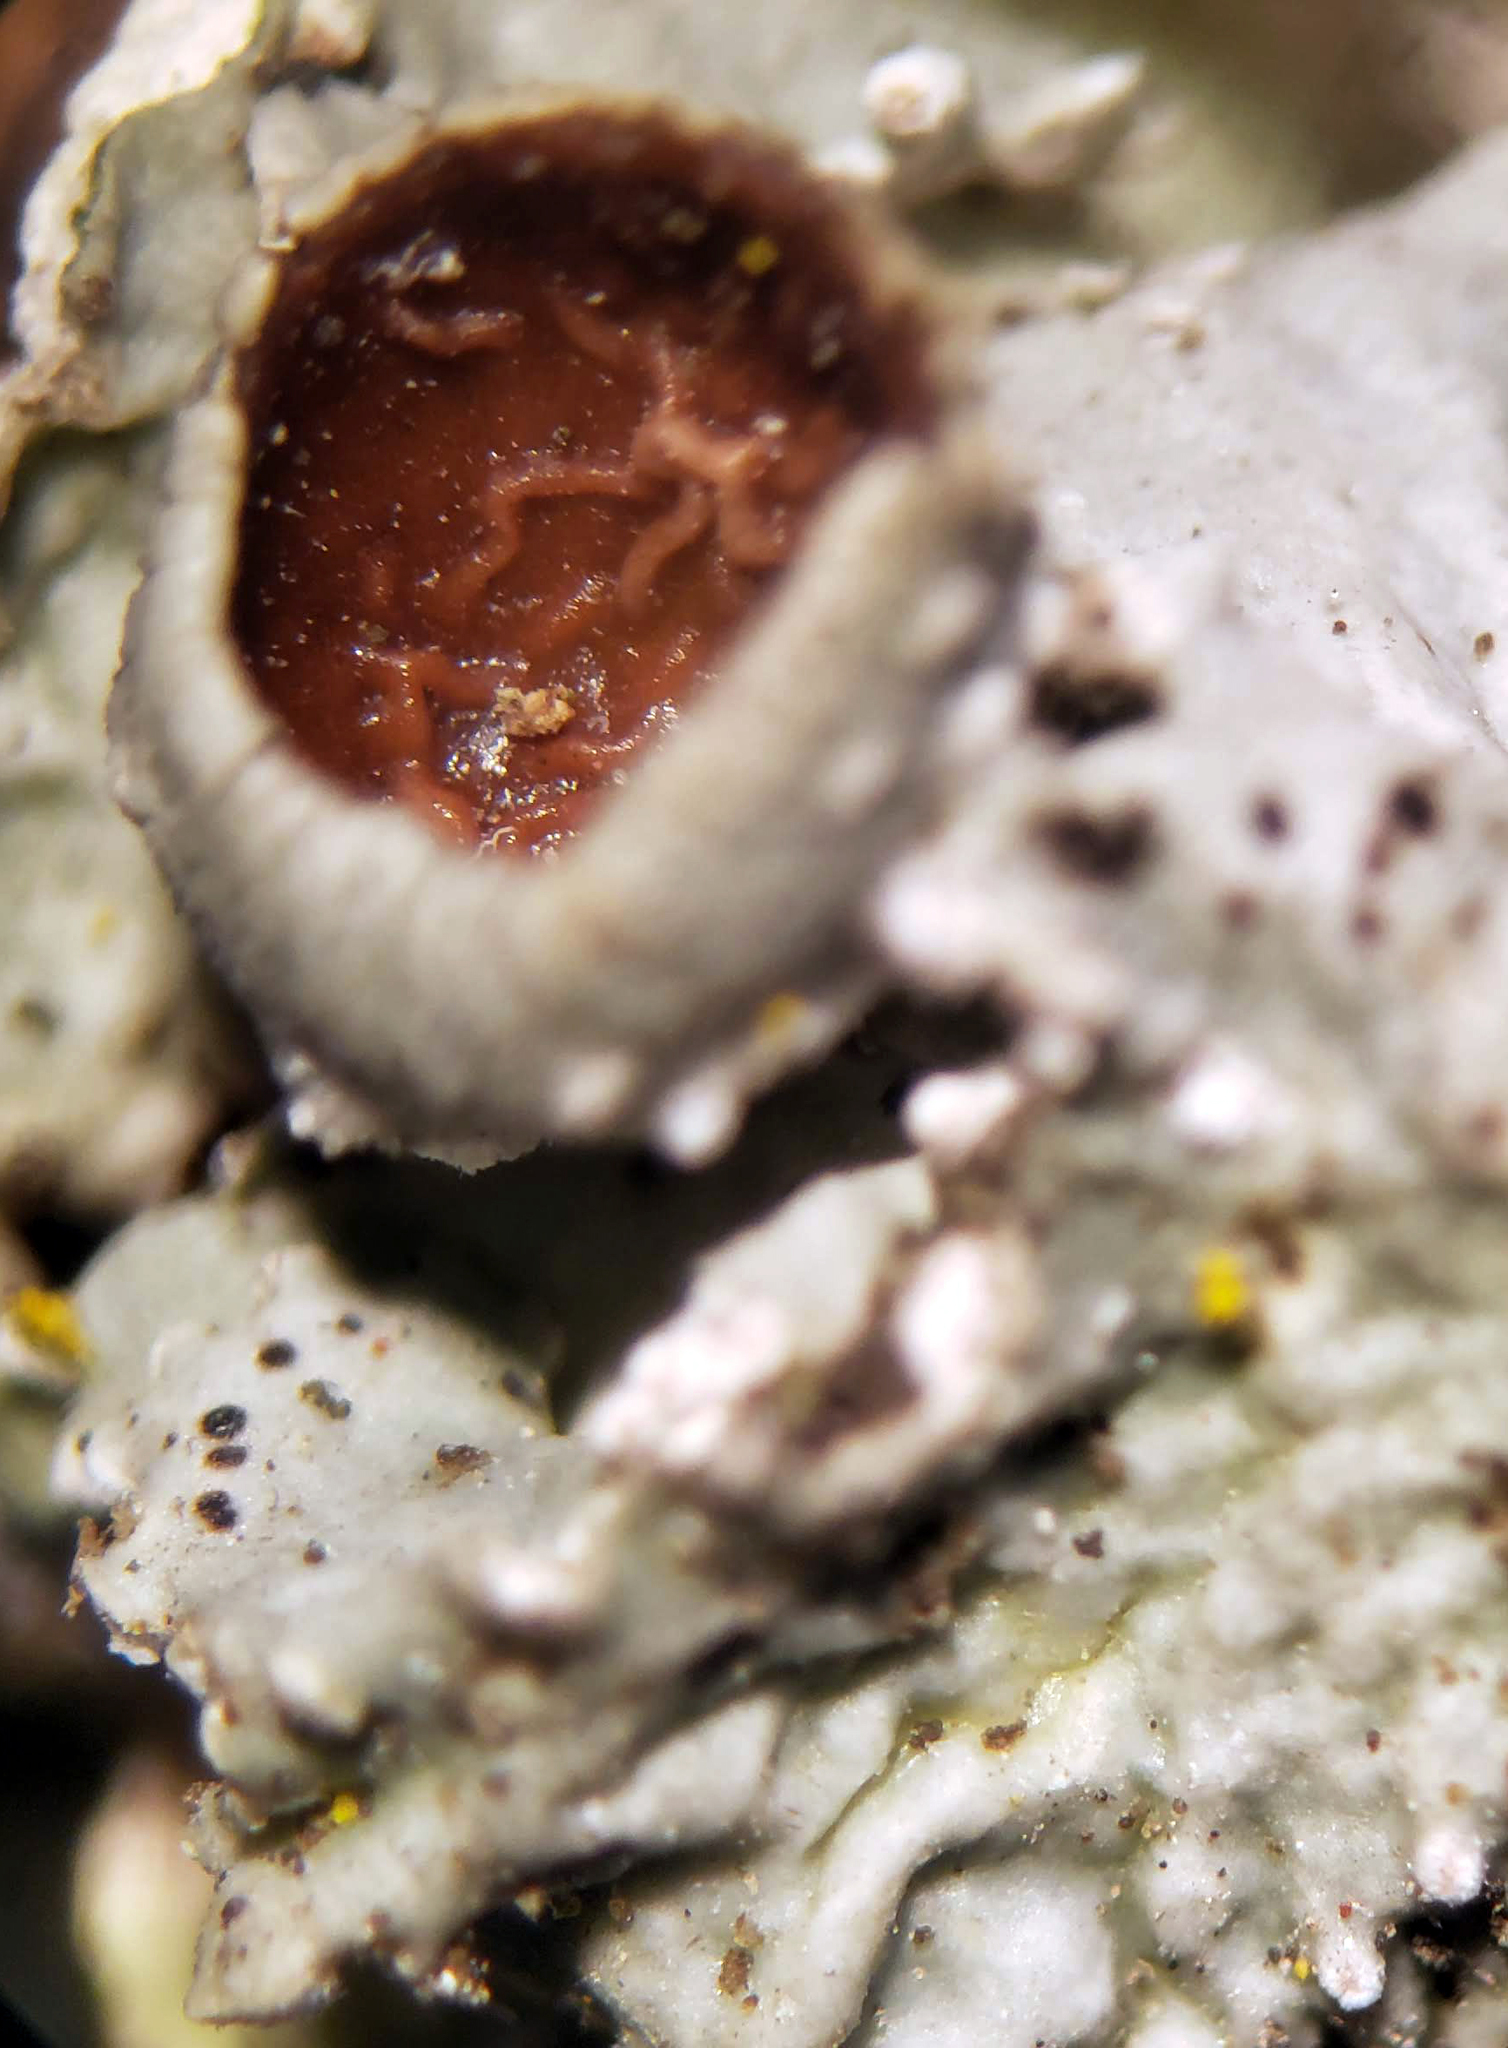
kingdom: Fungi
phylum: Ascomycota
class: Lecanoromycetes
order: Lecanorales
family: Parmeliaceae
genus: Punctelia
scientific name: Punctelia bolliana
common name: Eastern speckled shield lichen
